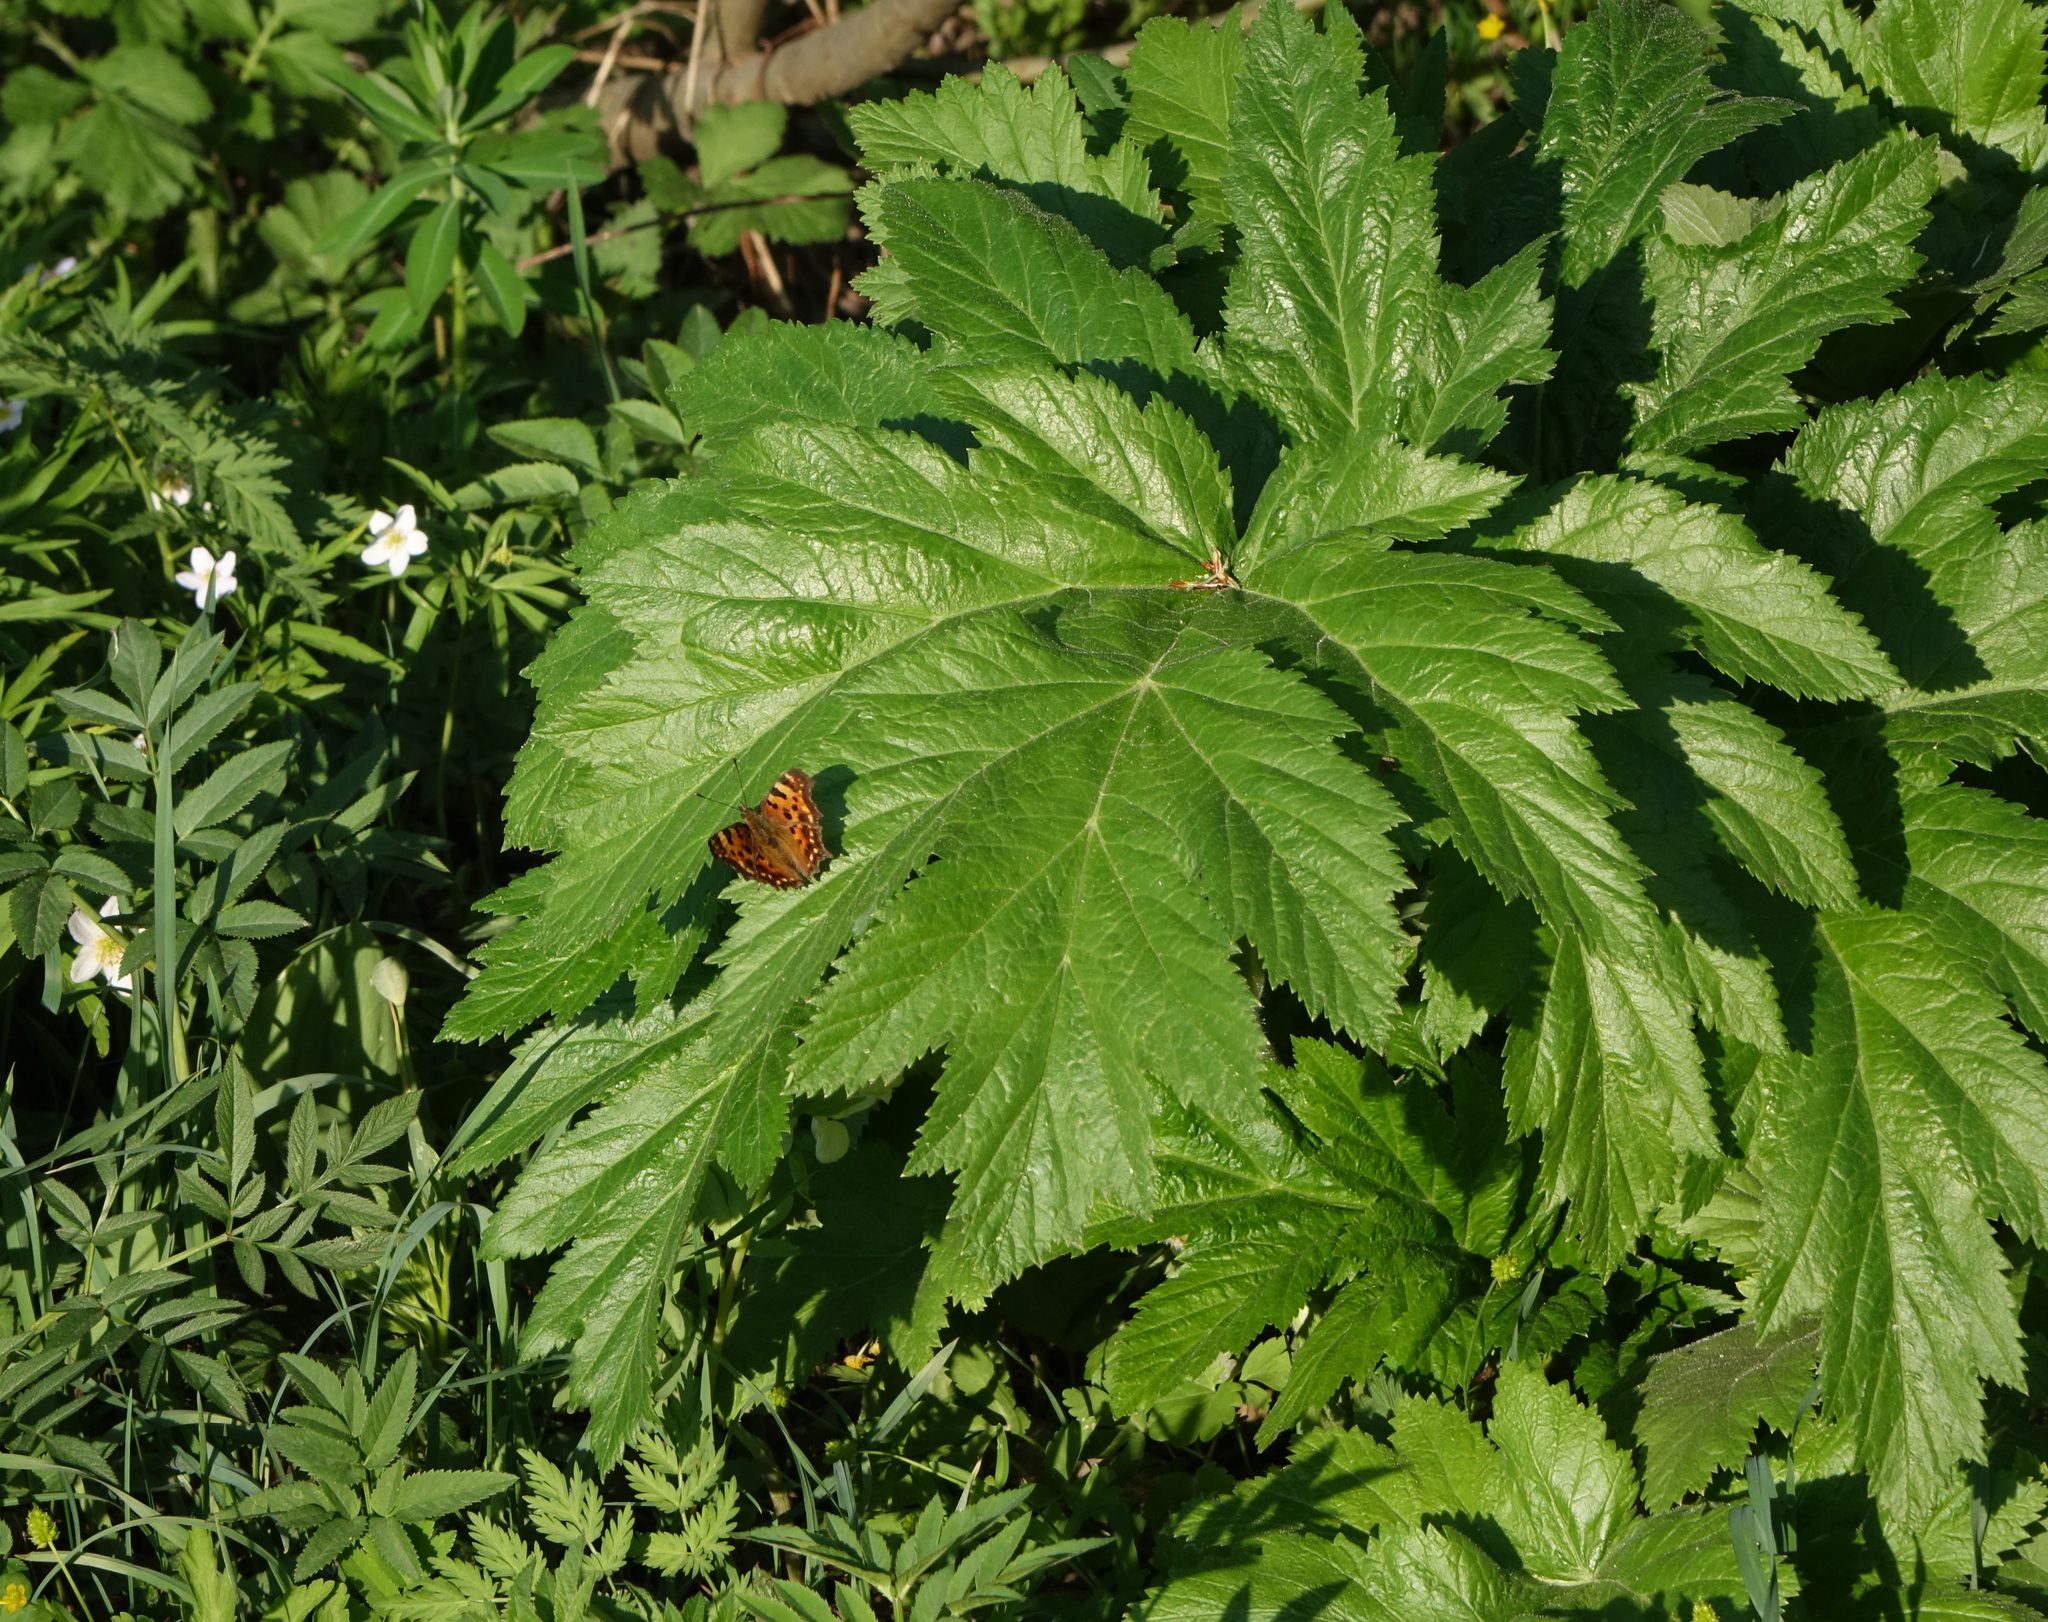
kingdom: Plantae
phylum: Tracheophyta
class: Magnoliopsida
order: Apiales
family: Apiaceae
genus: Heracleum
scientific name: Heracleum dissectum
